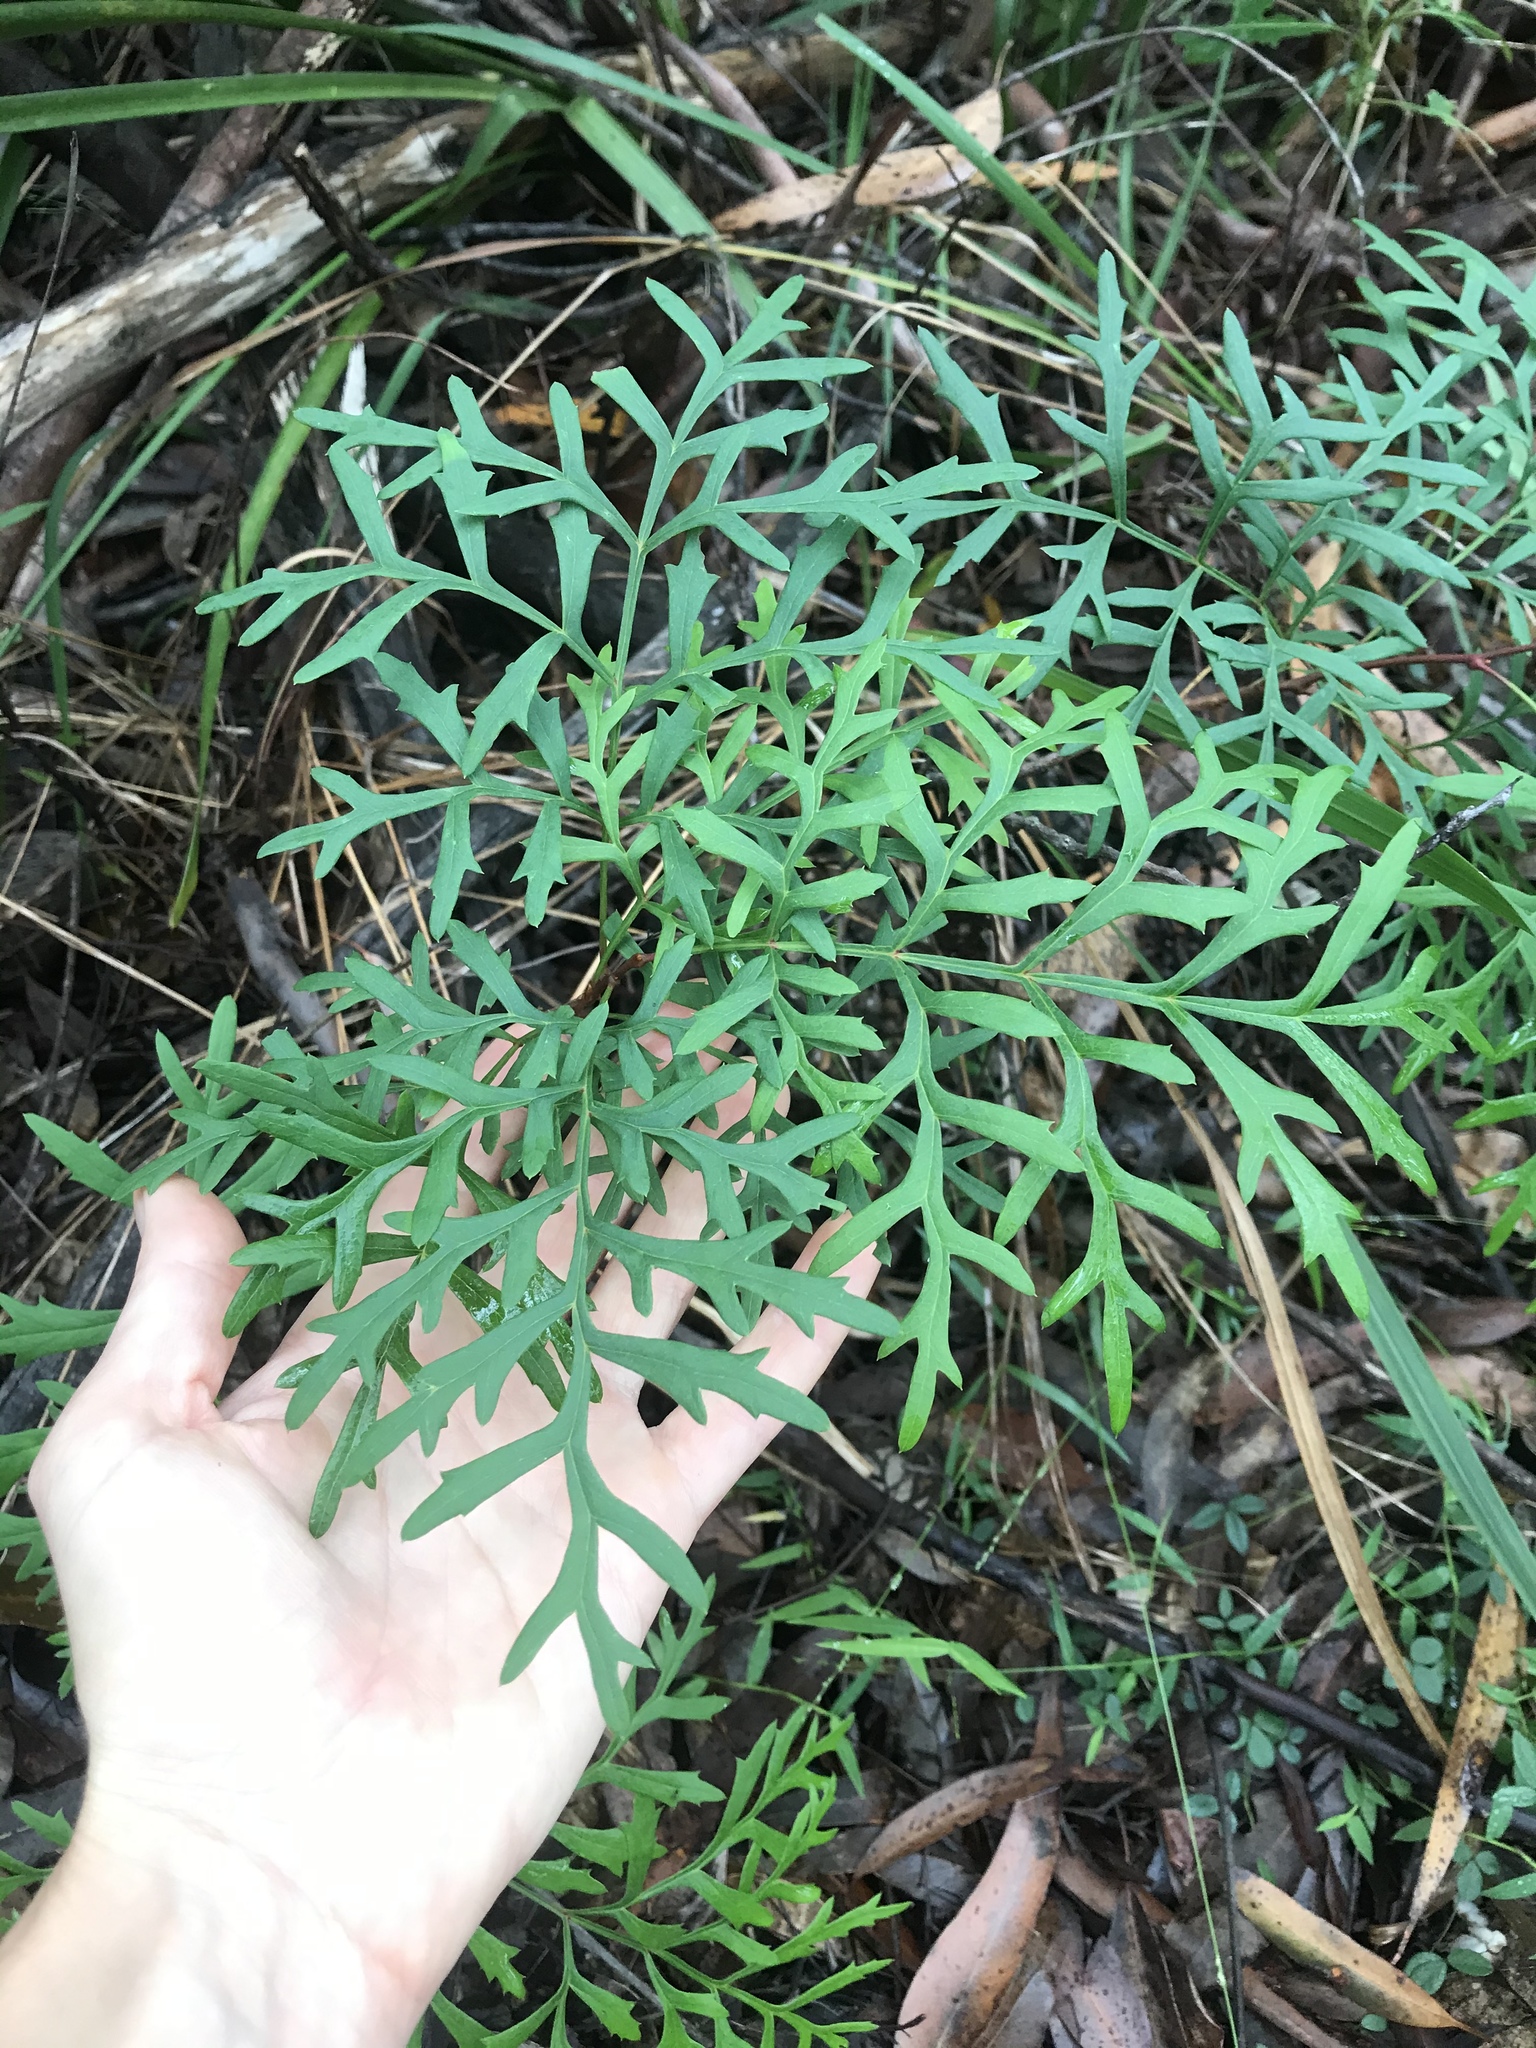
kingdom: Plantae
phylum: Tracheophyta
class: Magnoliopsida
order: Proteales
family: Proteaceae
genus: Lomatia
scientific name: Lomatia silaifolia
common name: Crinklebush
